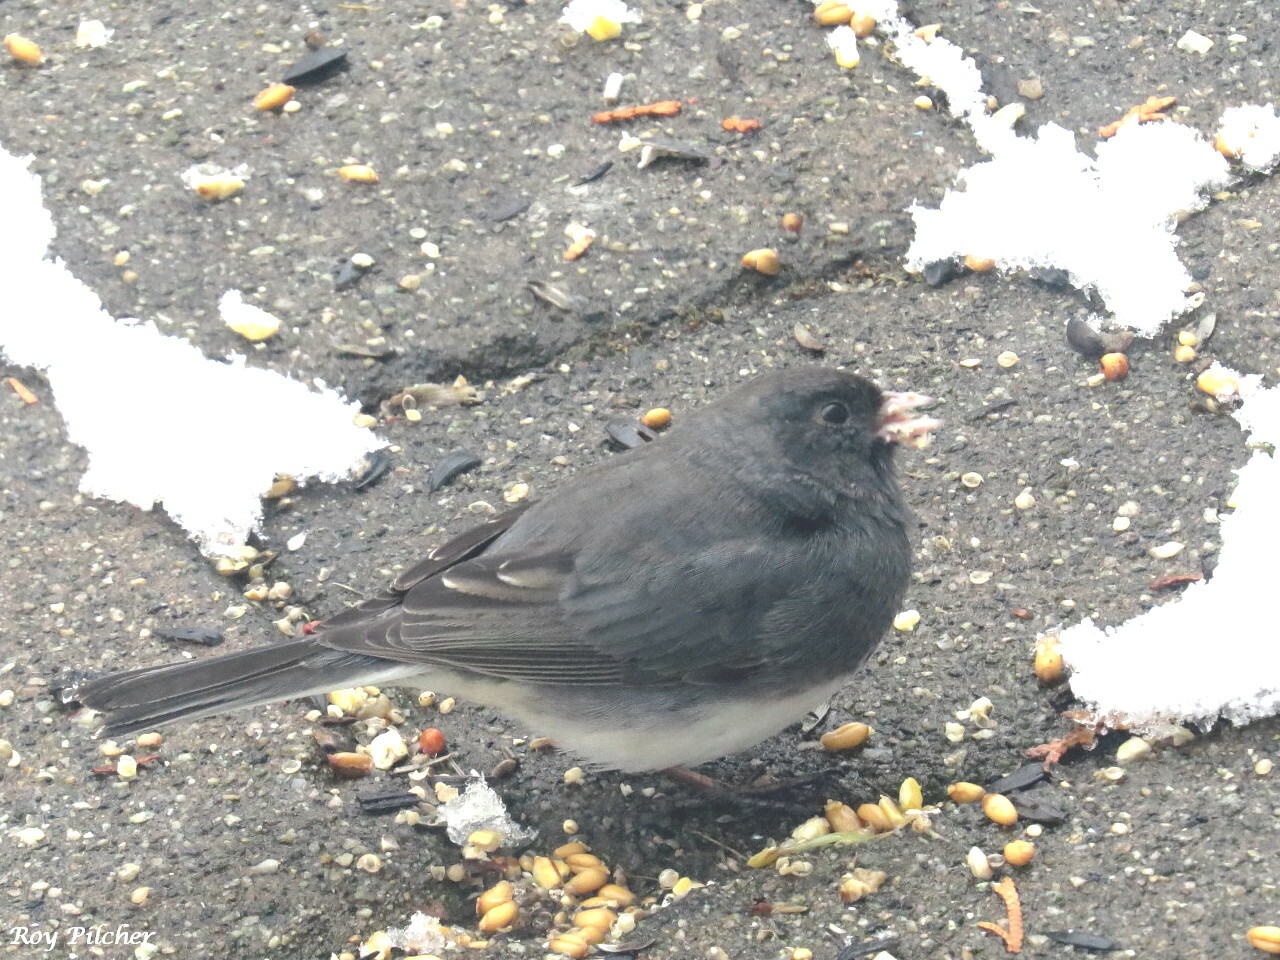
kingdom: Animalia
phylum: Chordata
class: Aves
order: Passeriformes
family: Passerellidae
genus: Junco
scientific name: Junco hyemalis
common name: Dark-eyed junco
